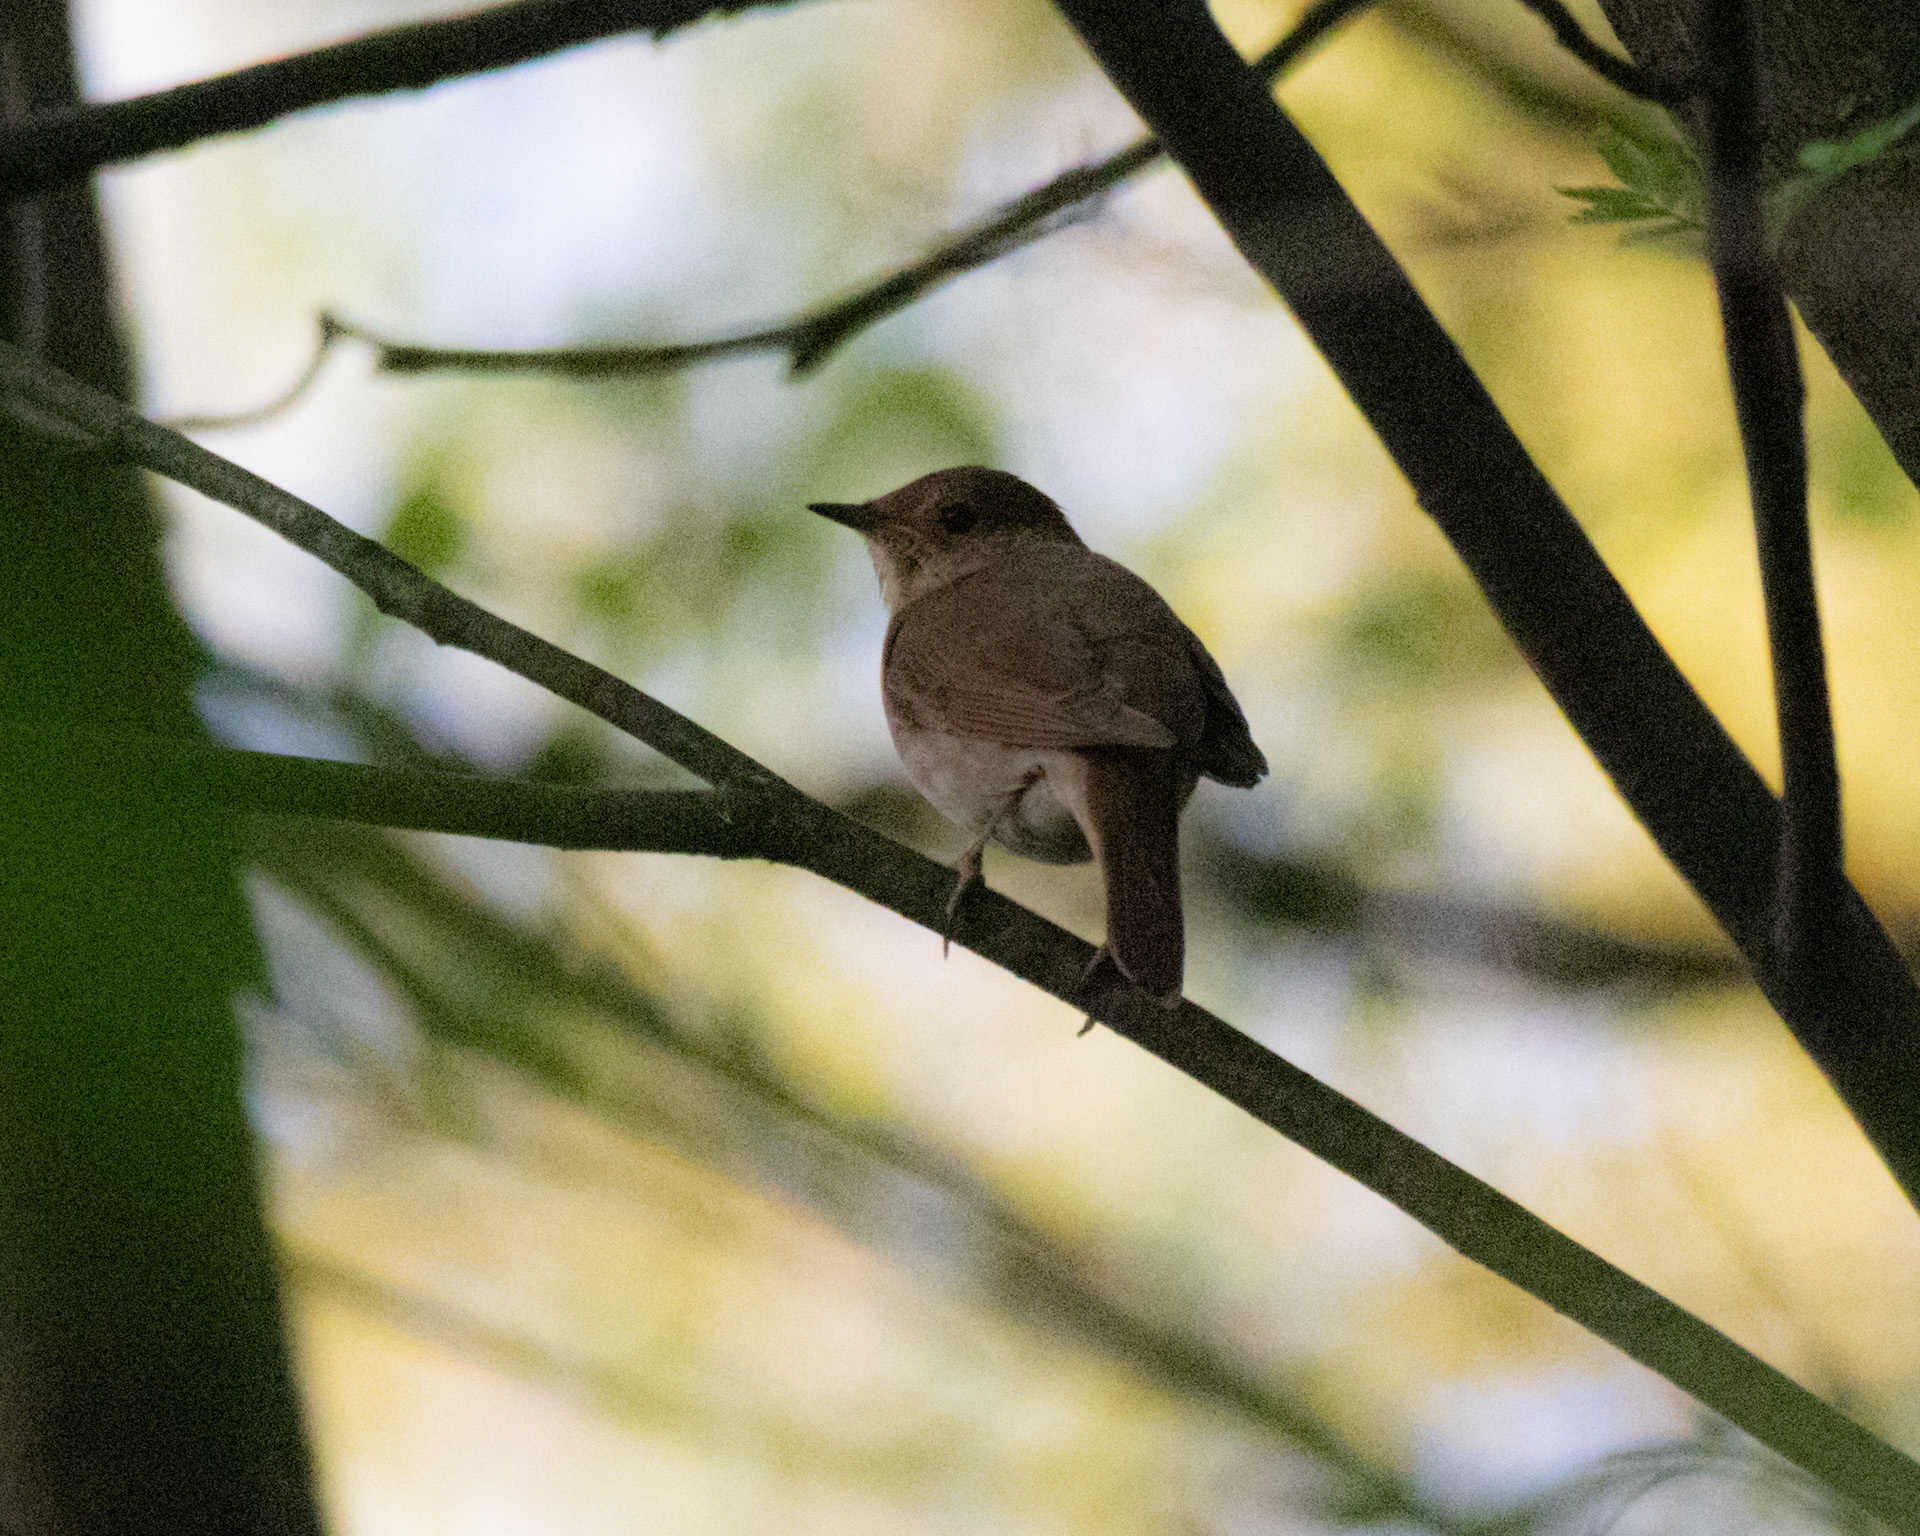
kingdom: Animalia
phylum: Chordata
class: Aves
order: Passeriformes
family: Muscicapidae
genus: Luscinia
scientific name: Luscinia luscinia
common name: Thrush nightingale
